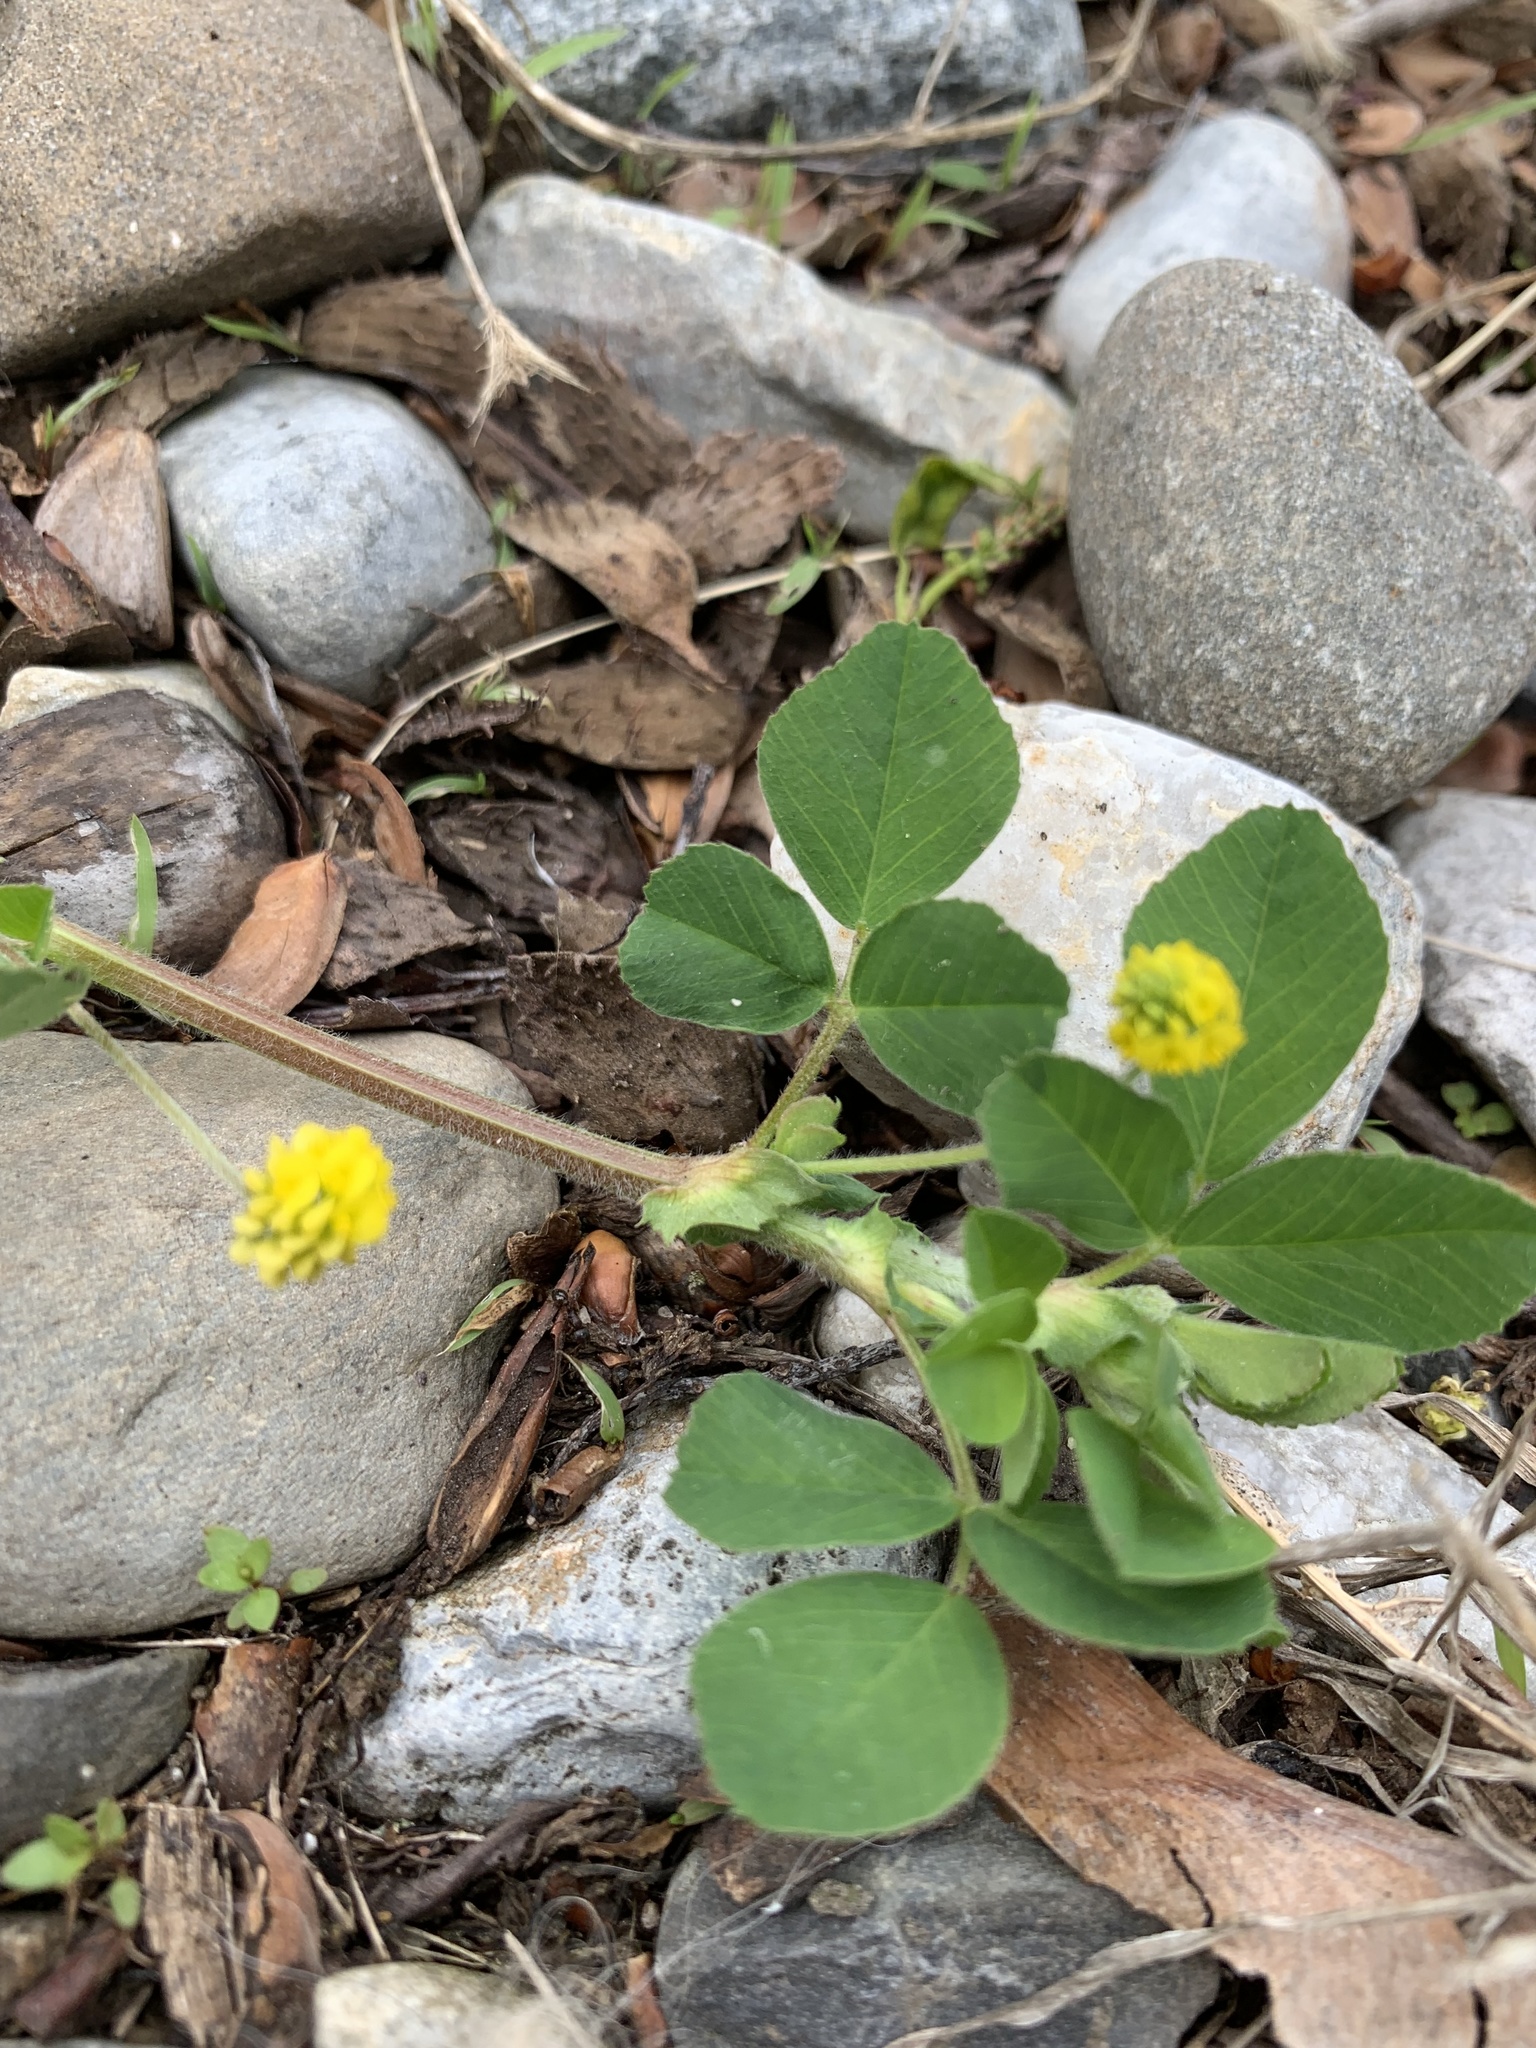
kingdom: Plantae
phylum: Tracheophyta
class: Magnoliopsida
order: Fabales
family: Fabaceae
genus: Medicago
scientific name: Medicago lupulina
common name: Black medick
